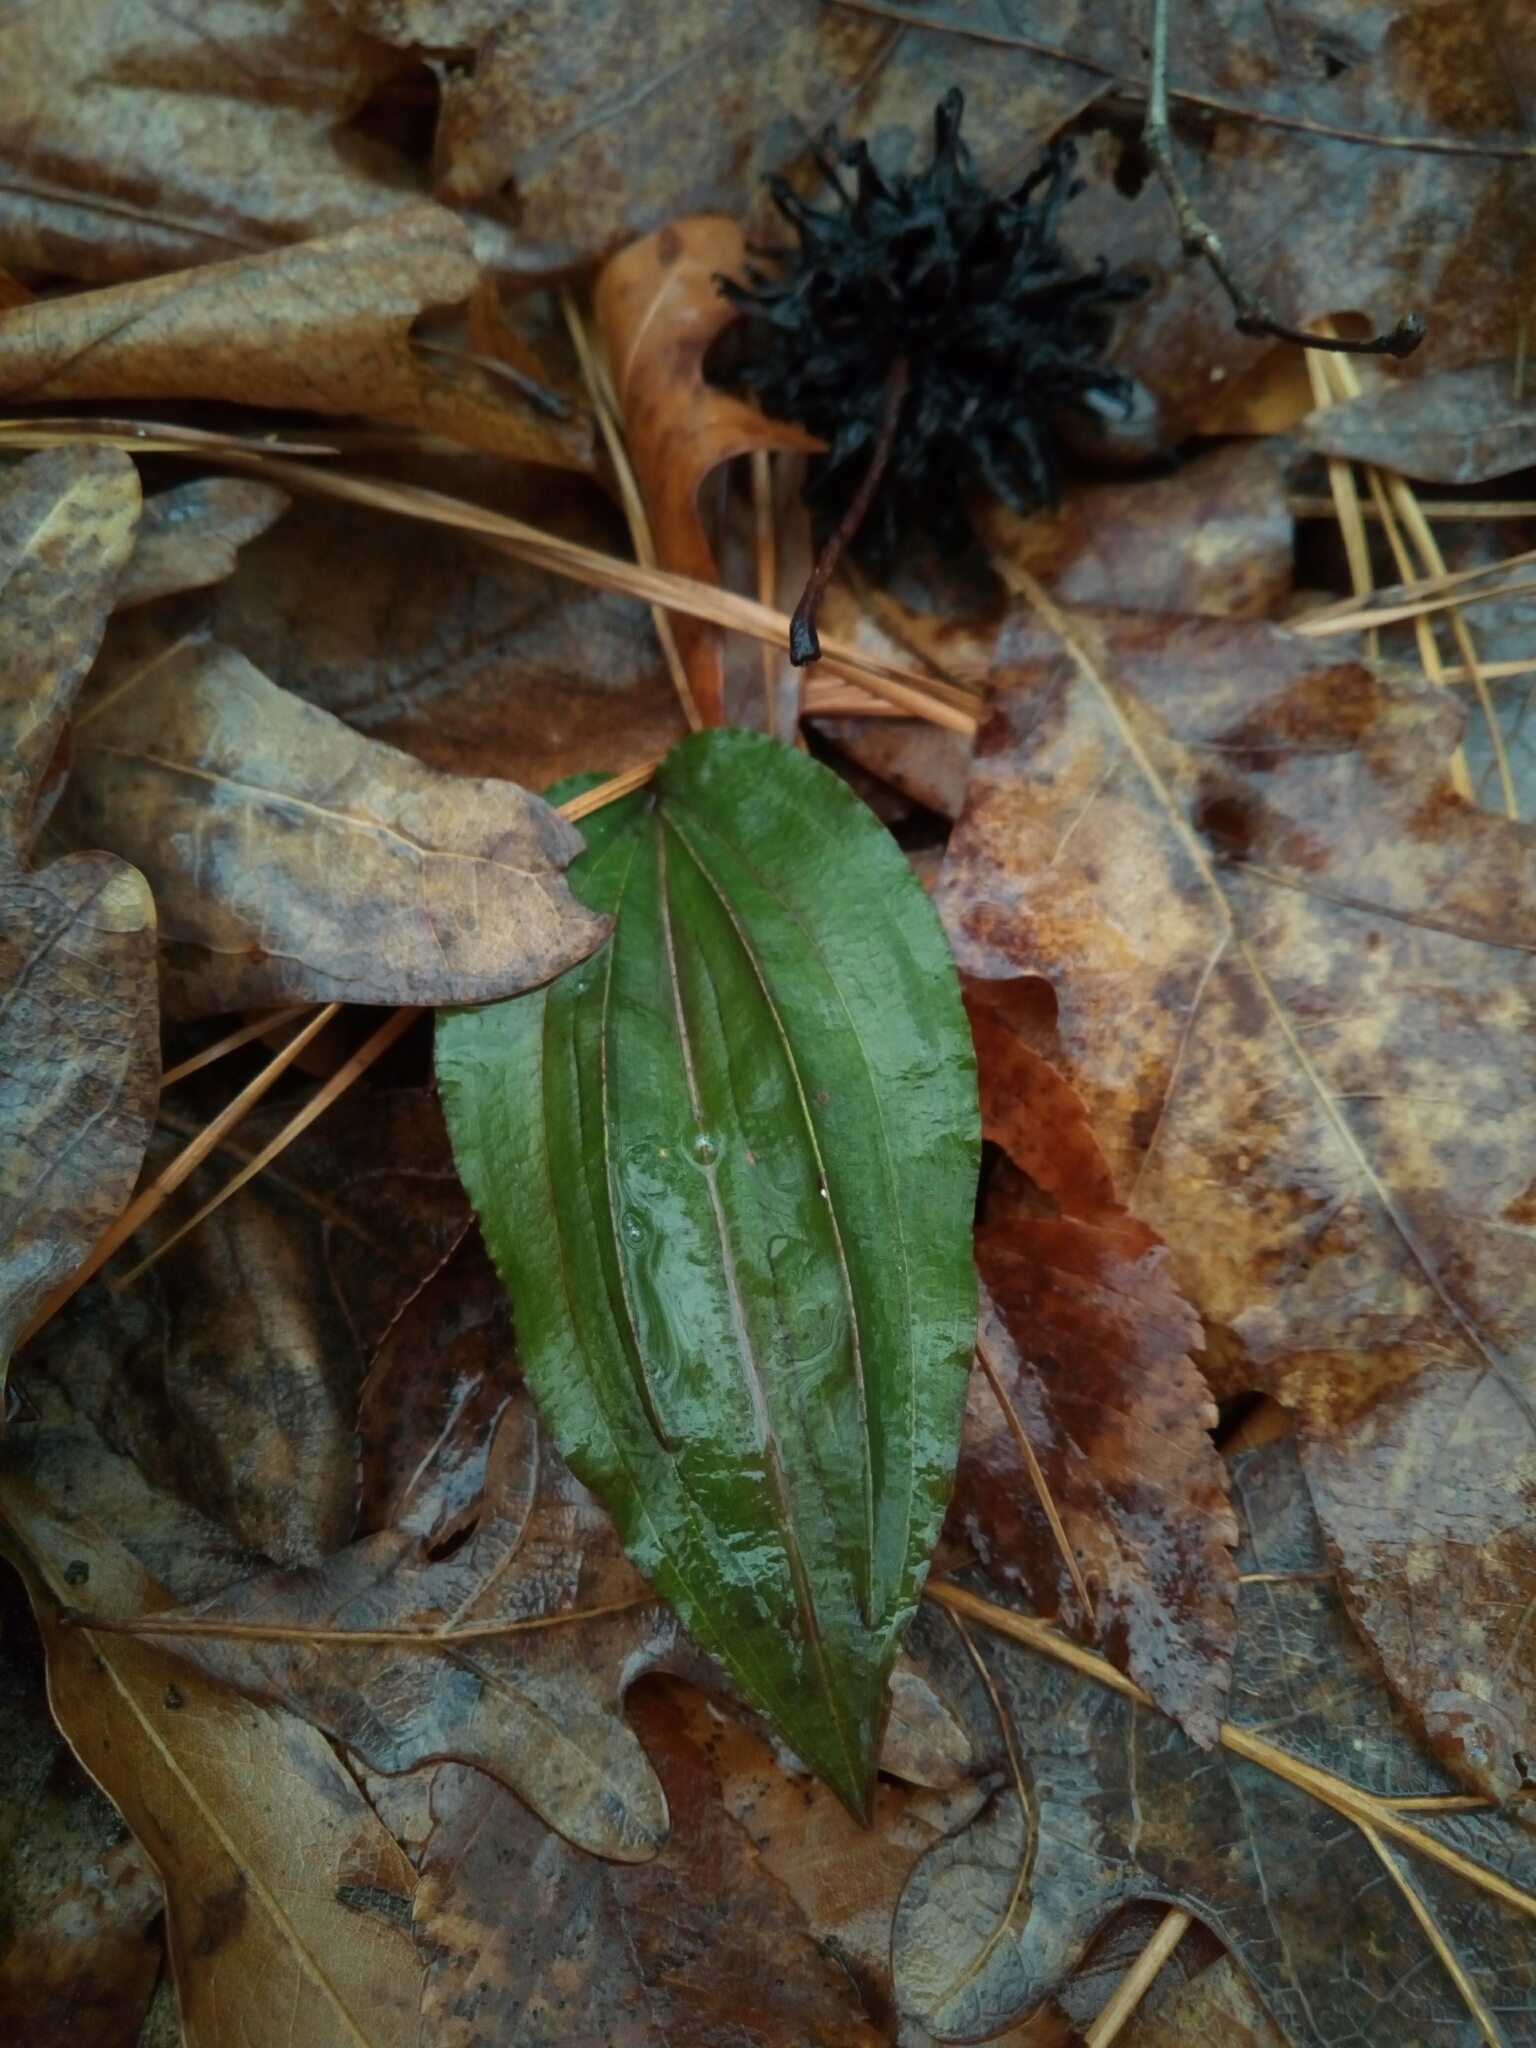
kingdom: Plantae
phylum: Tracheophyta
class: Liliopsida
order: Asparagales
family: Orchidaceae
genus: Tipularia
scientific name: Tipularia discolor
